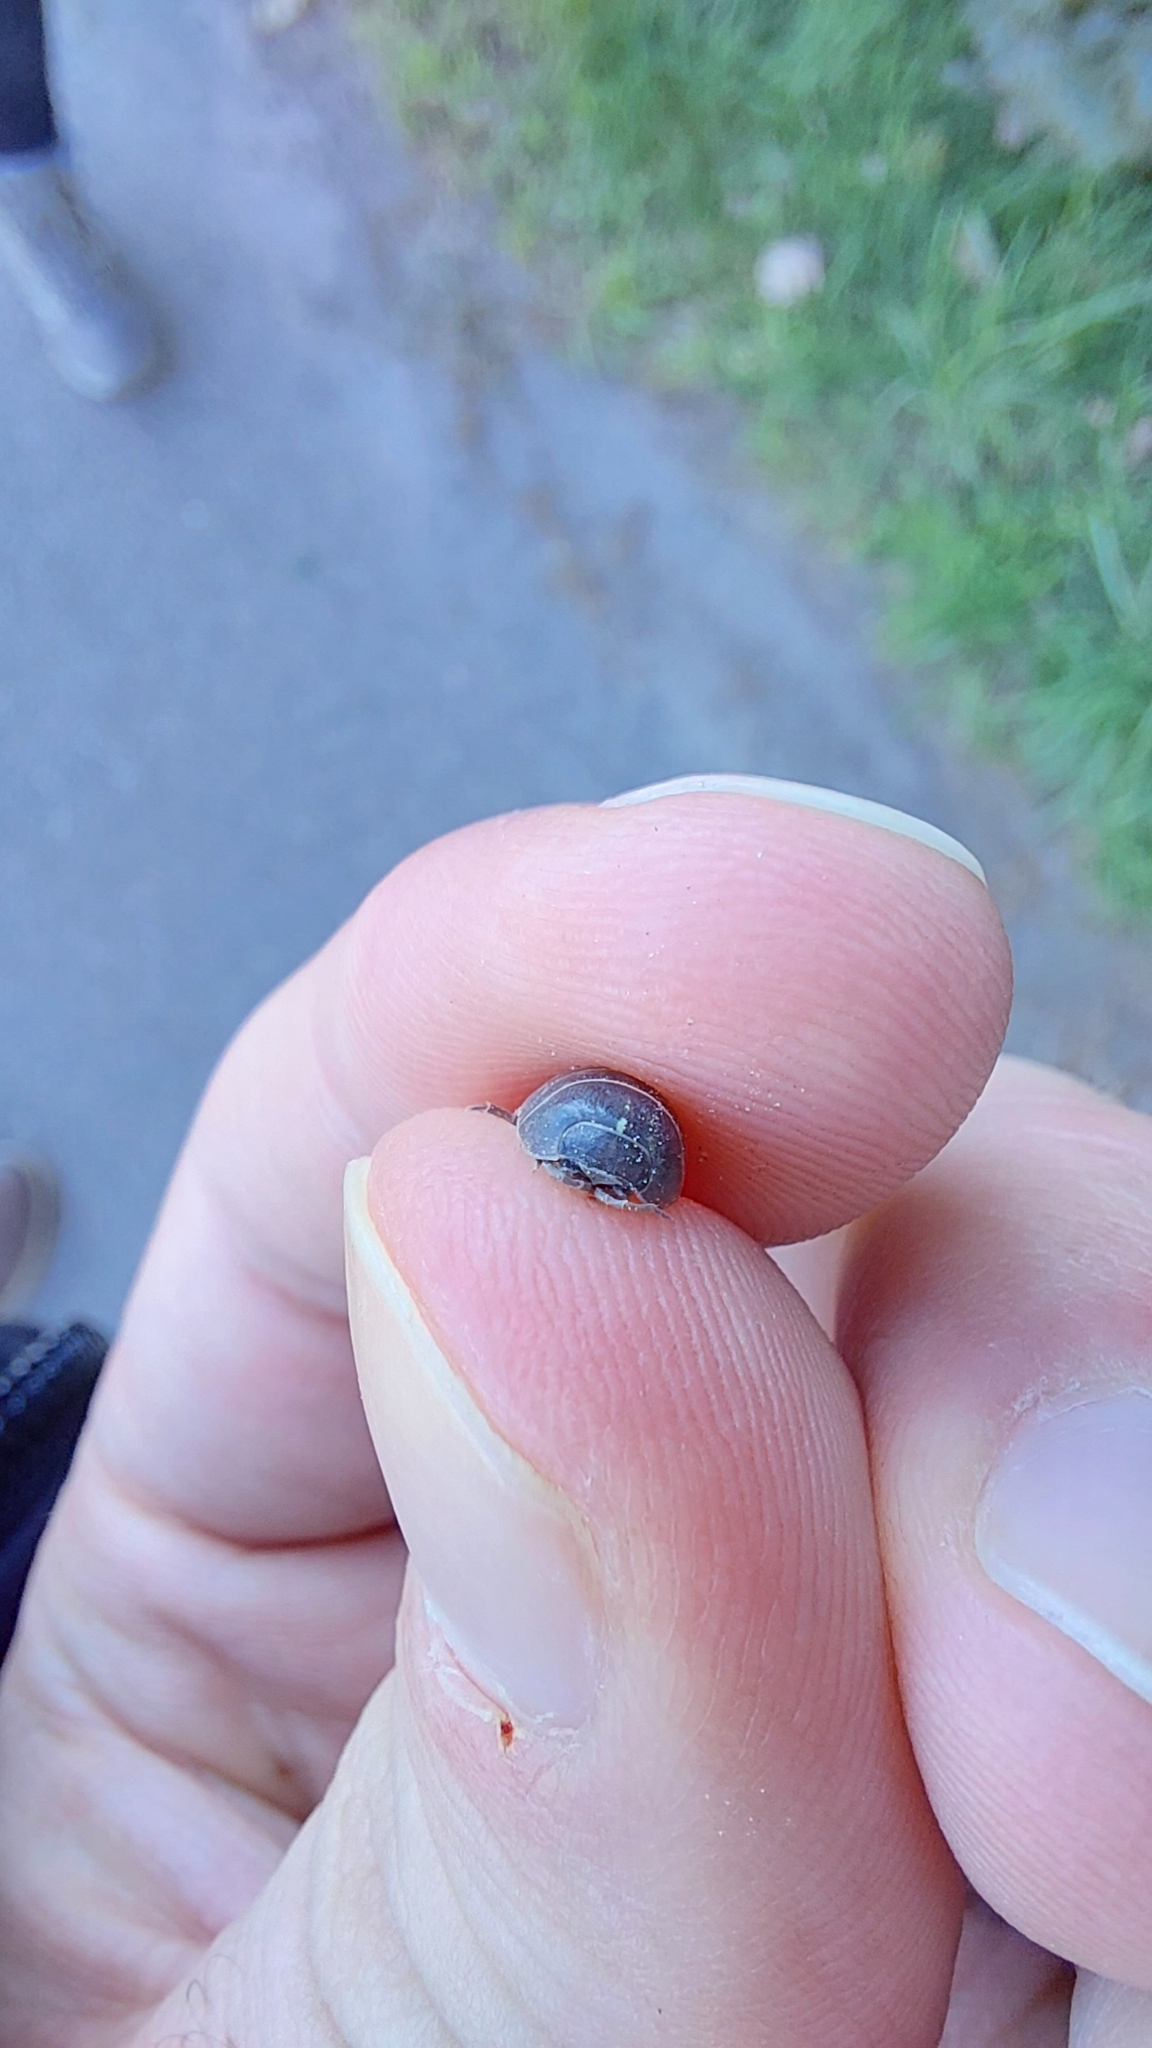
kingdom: Animalia
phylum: Arthropoda
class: Malacostraca
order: Isopoda
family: Armadillidiidae
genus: Armadillidium
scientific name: Armadillidium vulgare
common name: Common pill woodlouse
